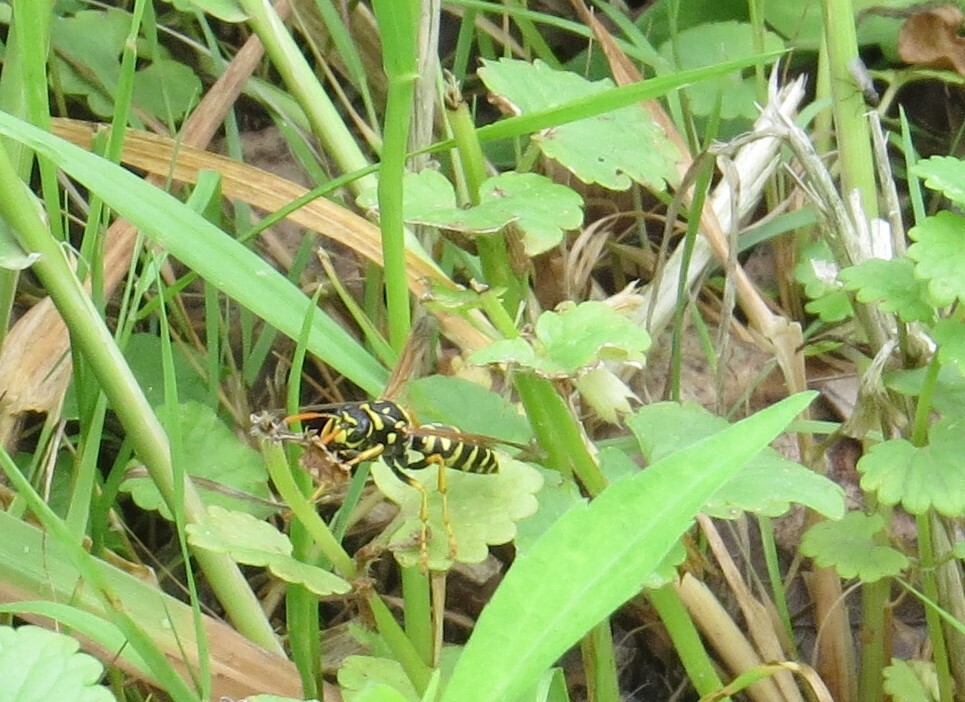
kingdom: Animalia
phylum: Arthropoda
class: Insecta
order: Hymenoptera
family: Eumenidae
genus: Polistes
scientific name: Polistes dominula
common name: Paper wasp
